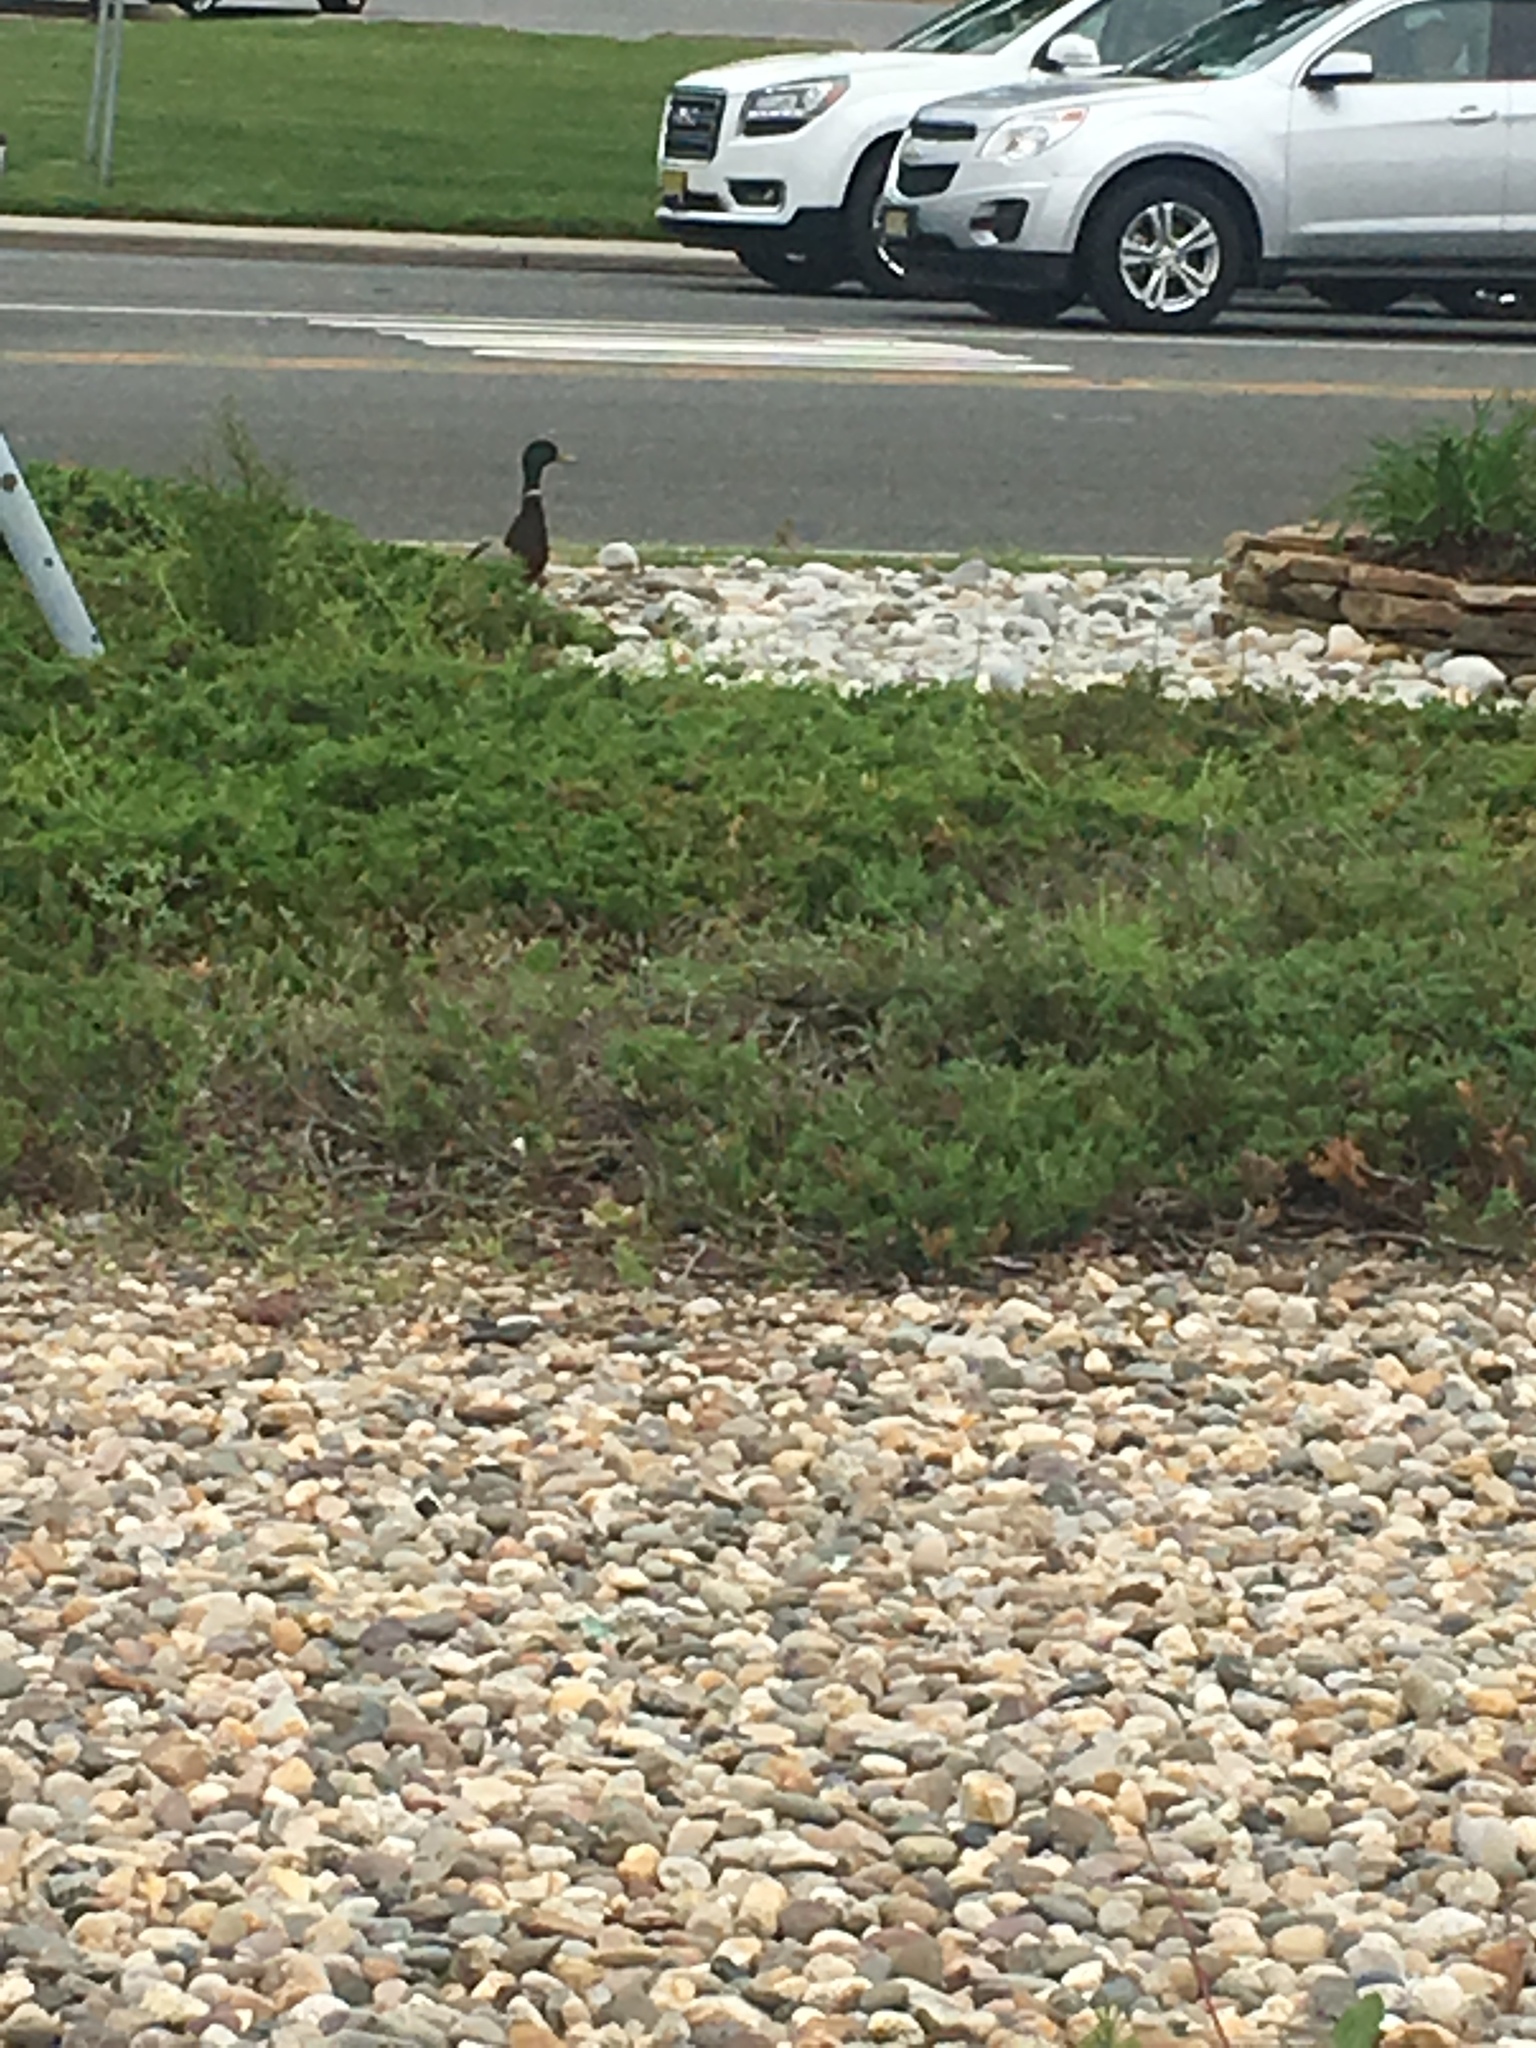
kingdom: Animalia
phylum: Chordata
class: Aves
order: Anseriformes
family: Anatidae
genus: Anas
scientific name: Anas platyrhynchos
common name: Mallard
